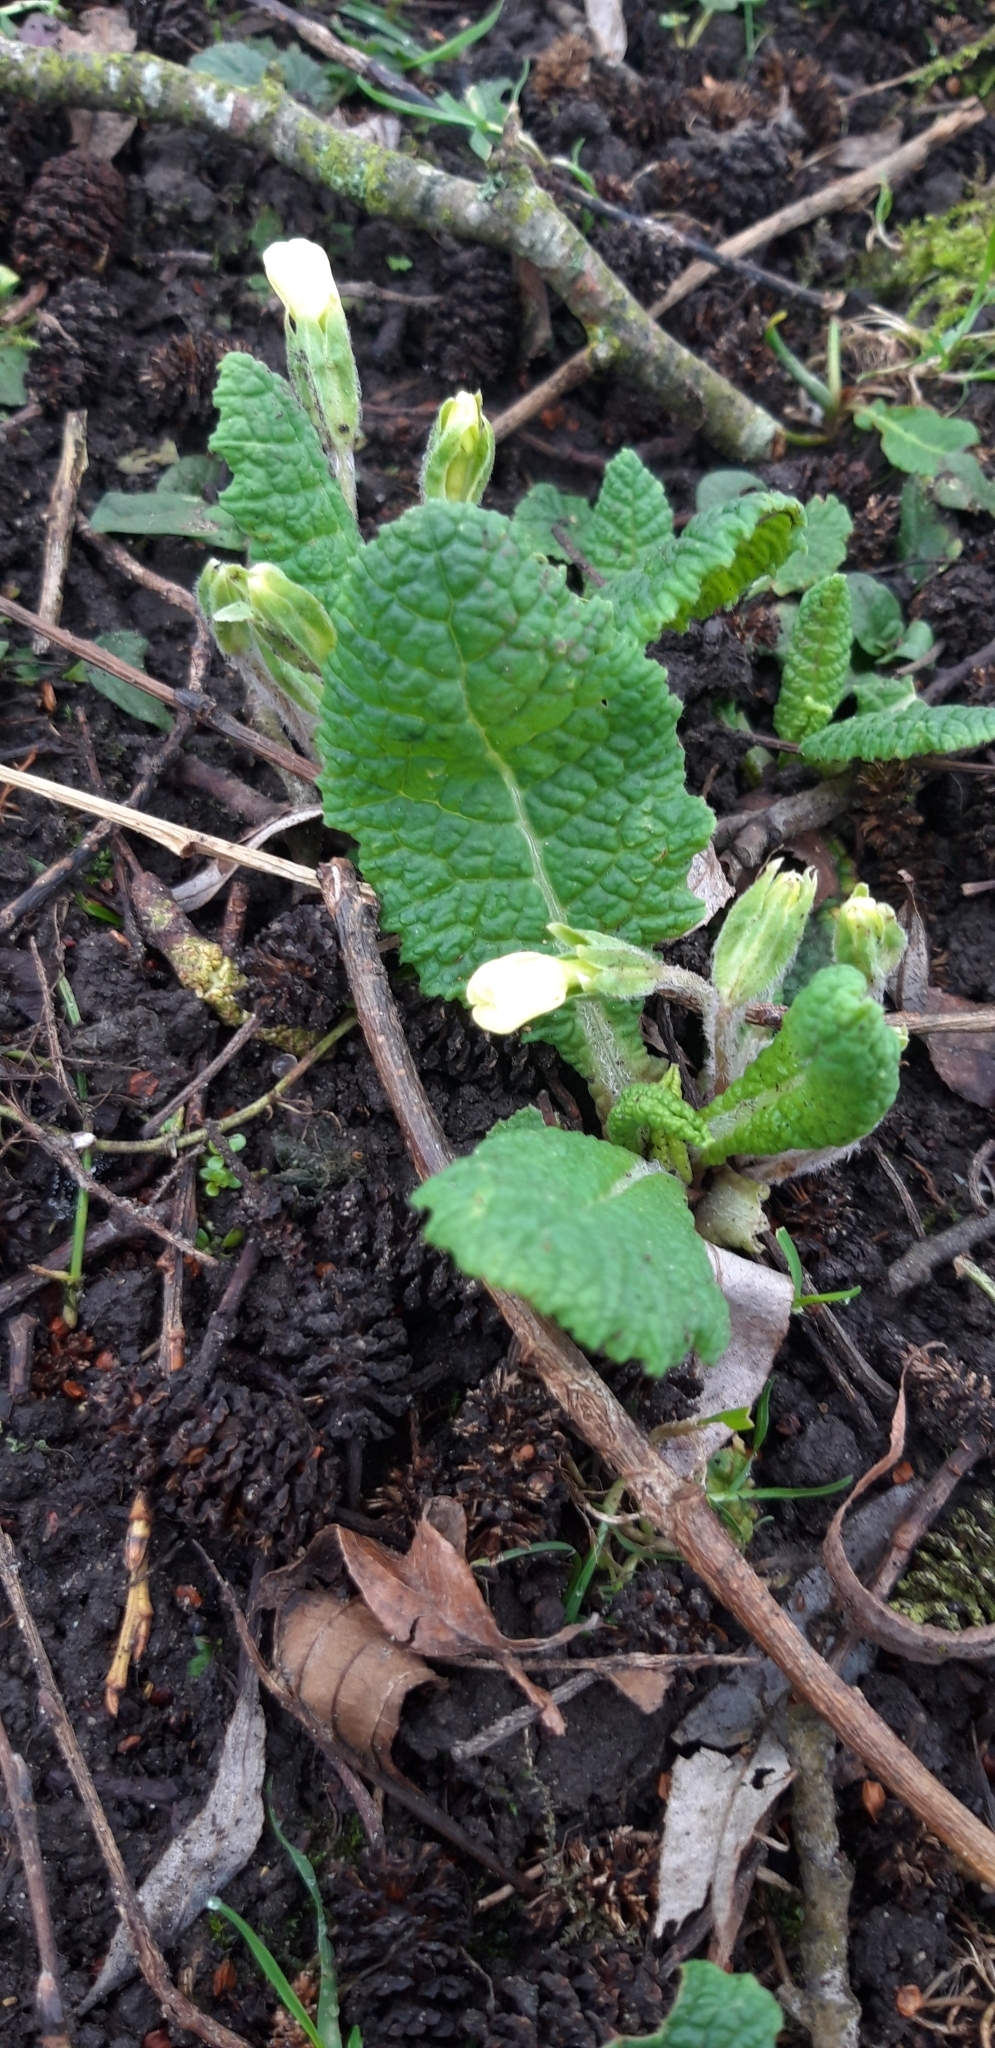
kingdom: Plantae
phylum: Tracheophyta
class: Magnoliopsida
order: Ericales
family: Primulaceae
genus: Primula
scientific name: Primula vulgaris
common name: Primrose
